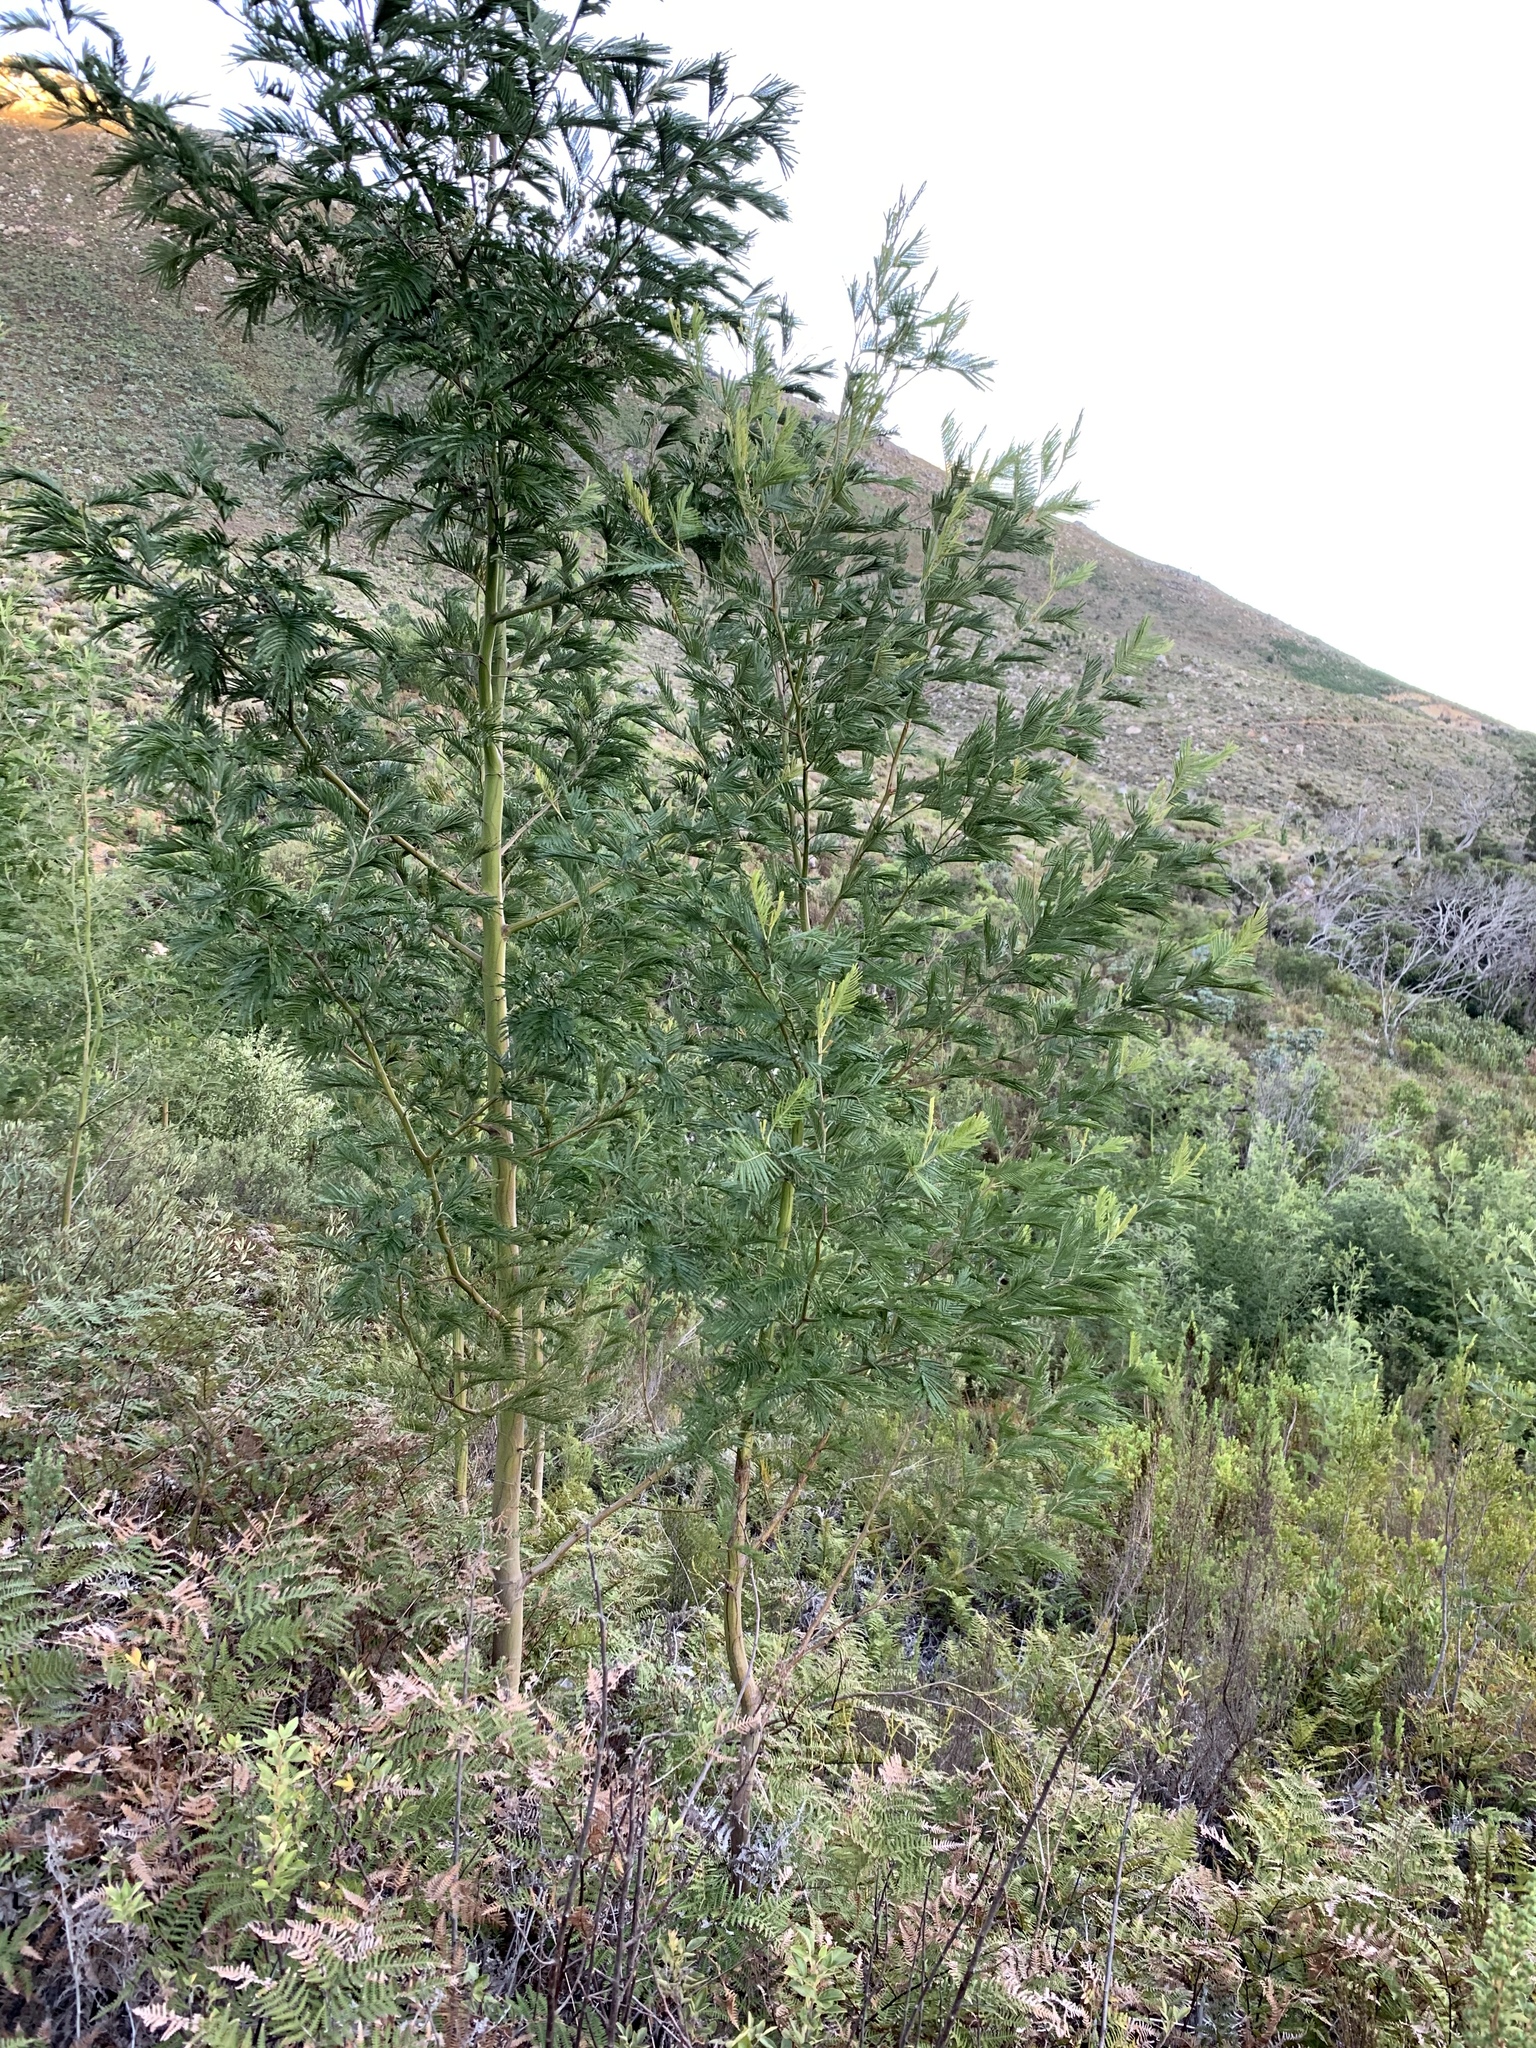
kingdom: Plantae
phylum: Tracheophyta
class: Magnoliopsida
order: Fabales
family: Fabaceae
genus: Acacia
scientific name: Acacia mearnsii
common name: Black wattle
